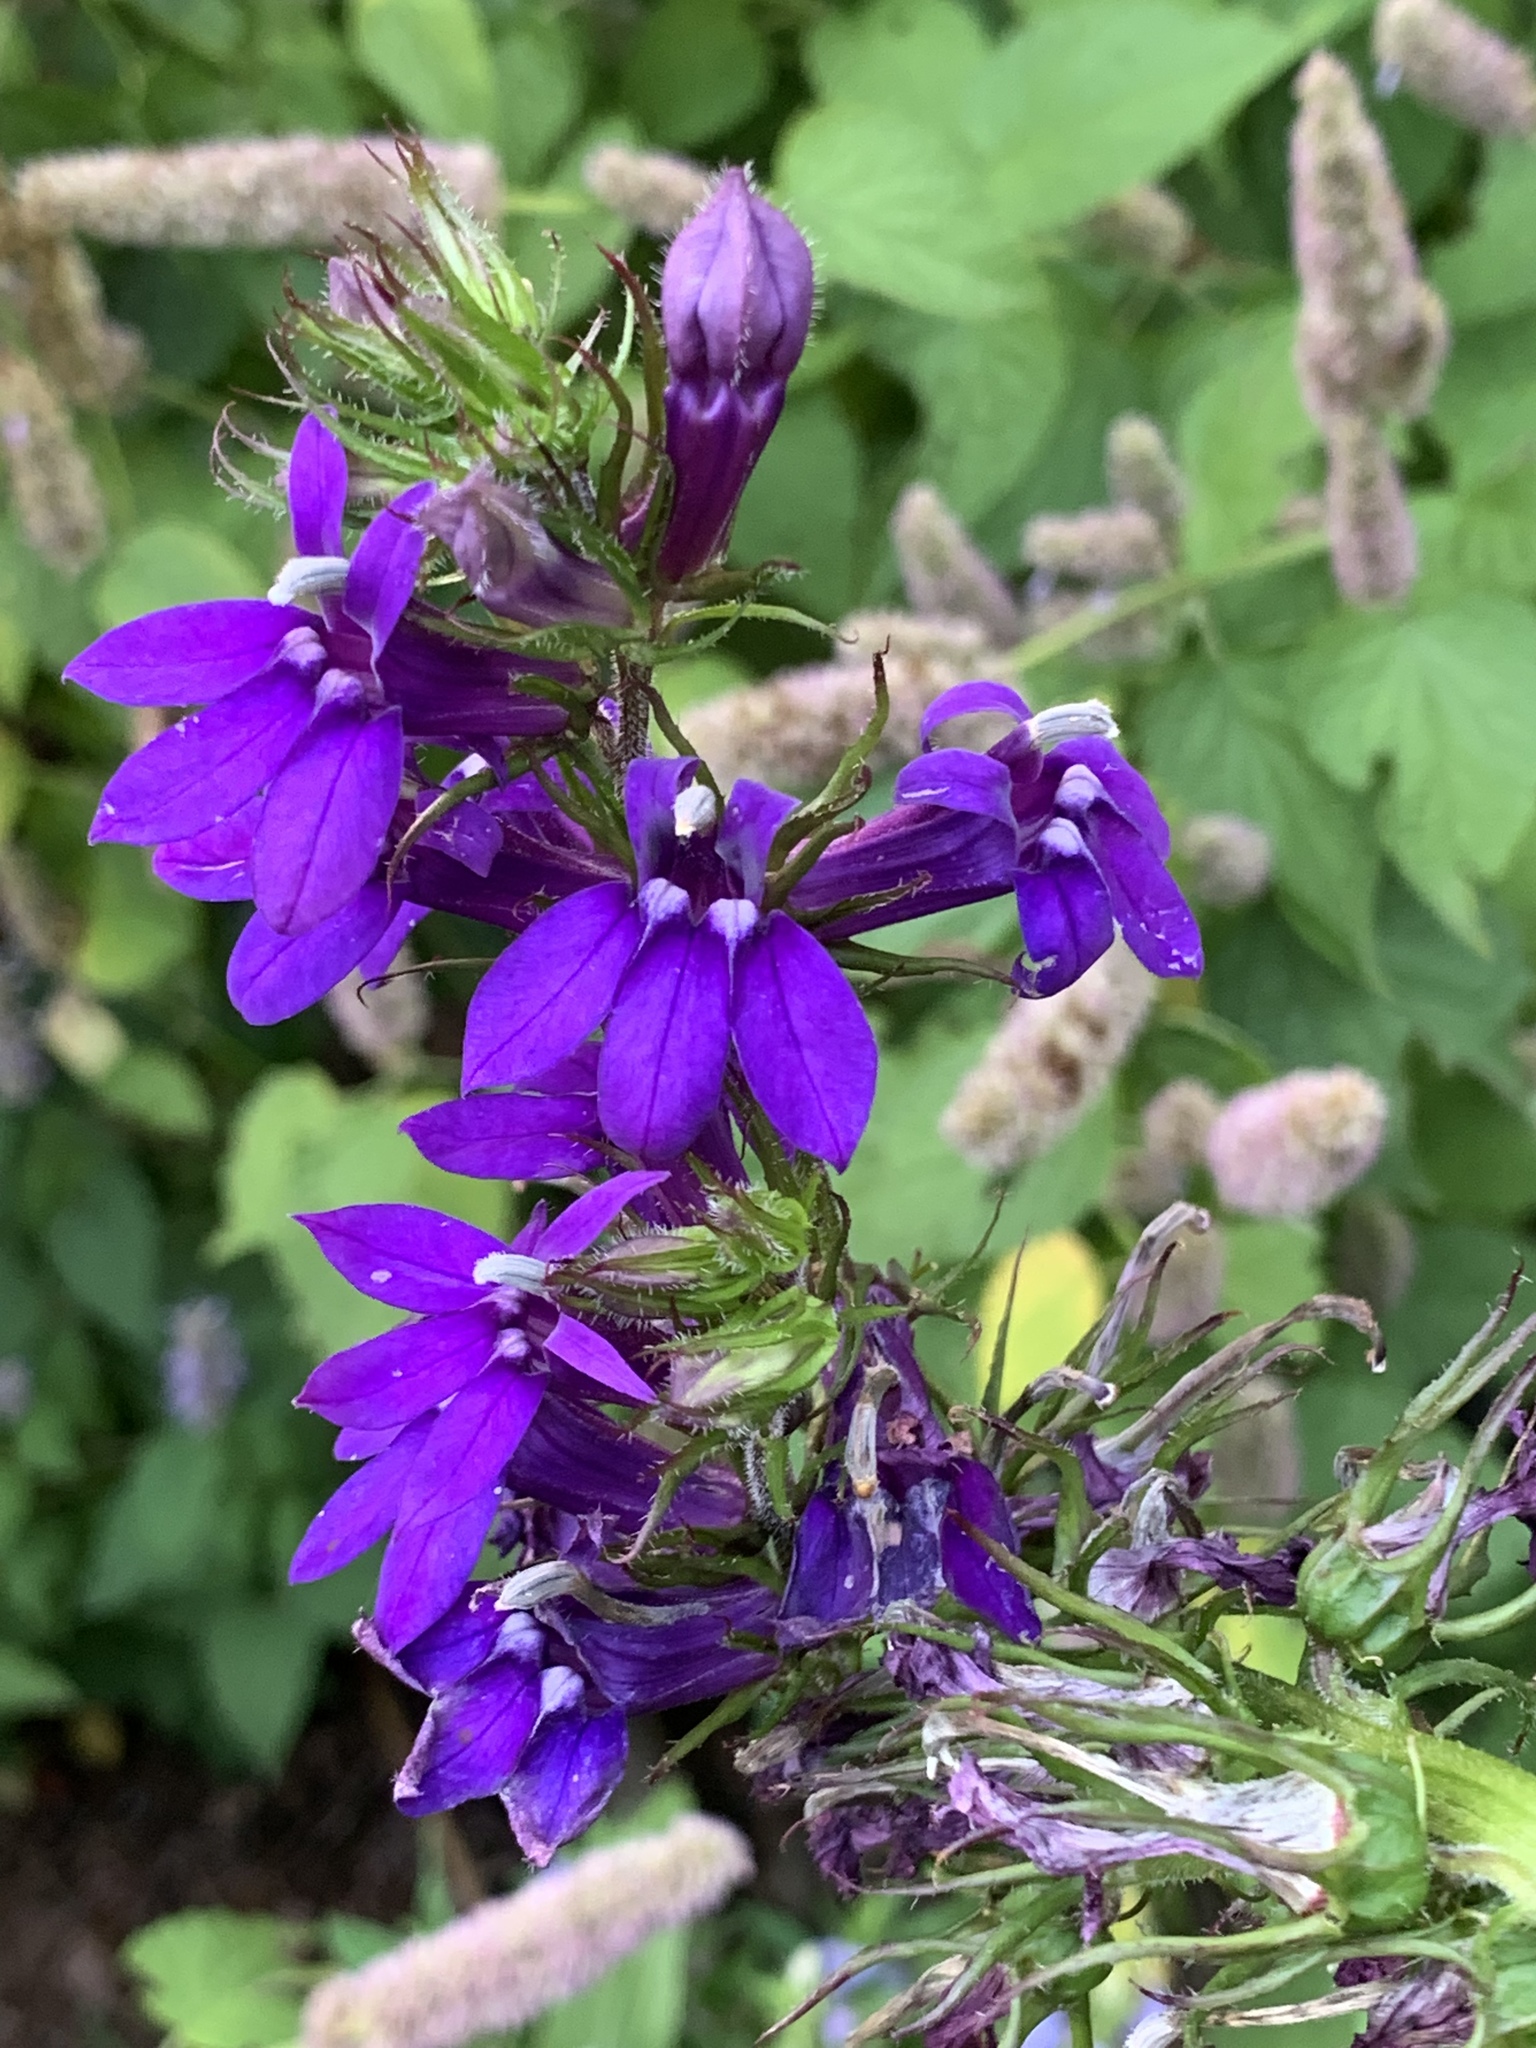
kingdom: Plantae
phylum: Tracheophyta
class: Magnoliopsida
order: Asterales
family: Campanulaceae
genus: Lobelia
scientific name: Lobelia siphilitica
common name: Great lobelia
